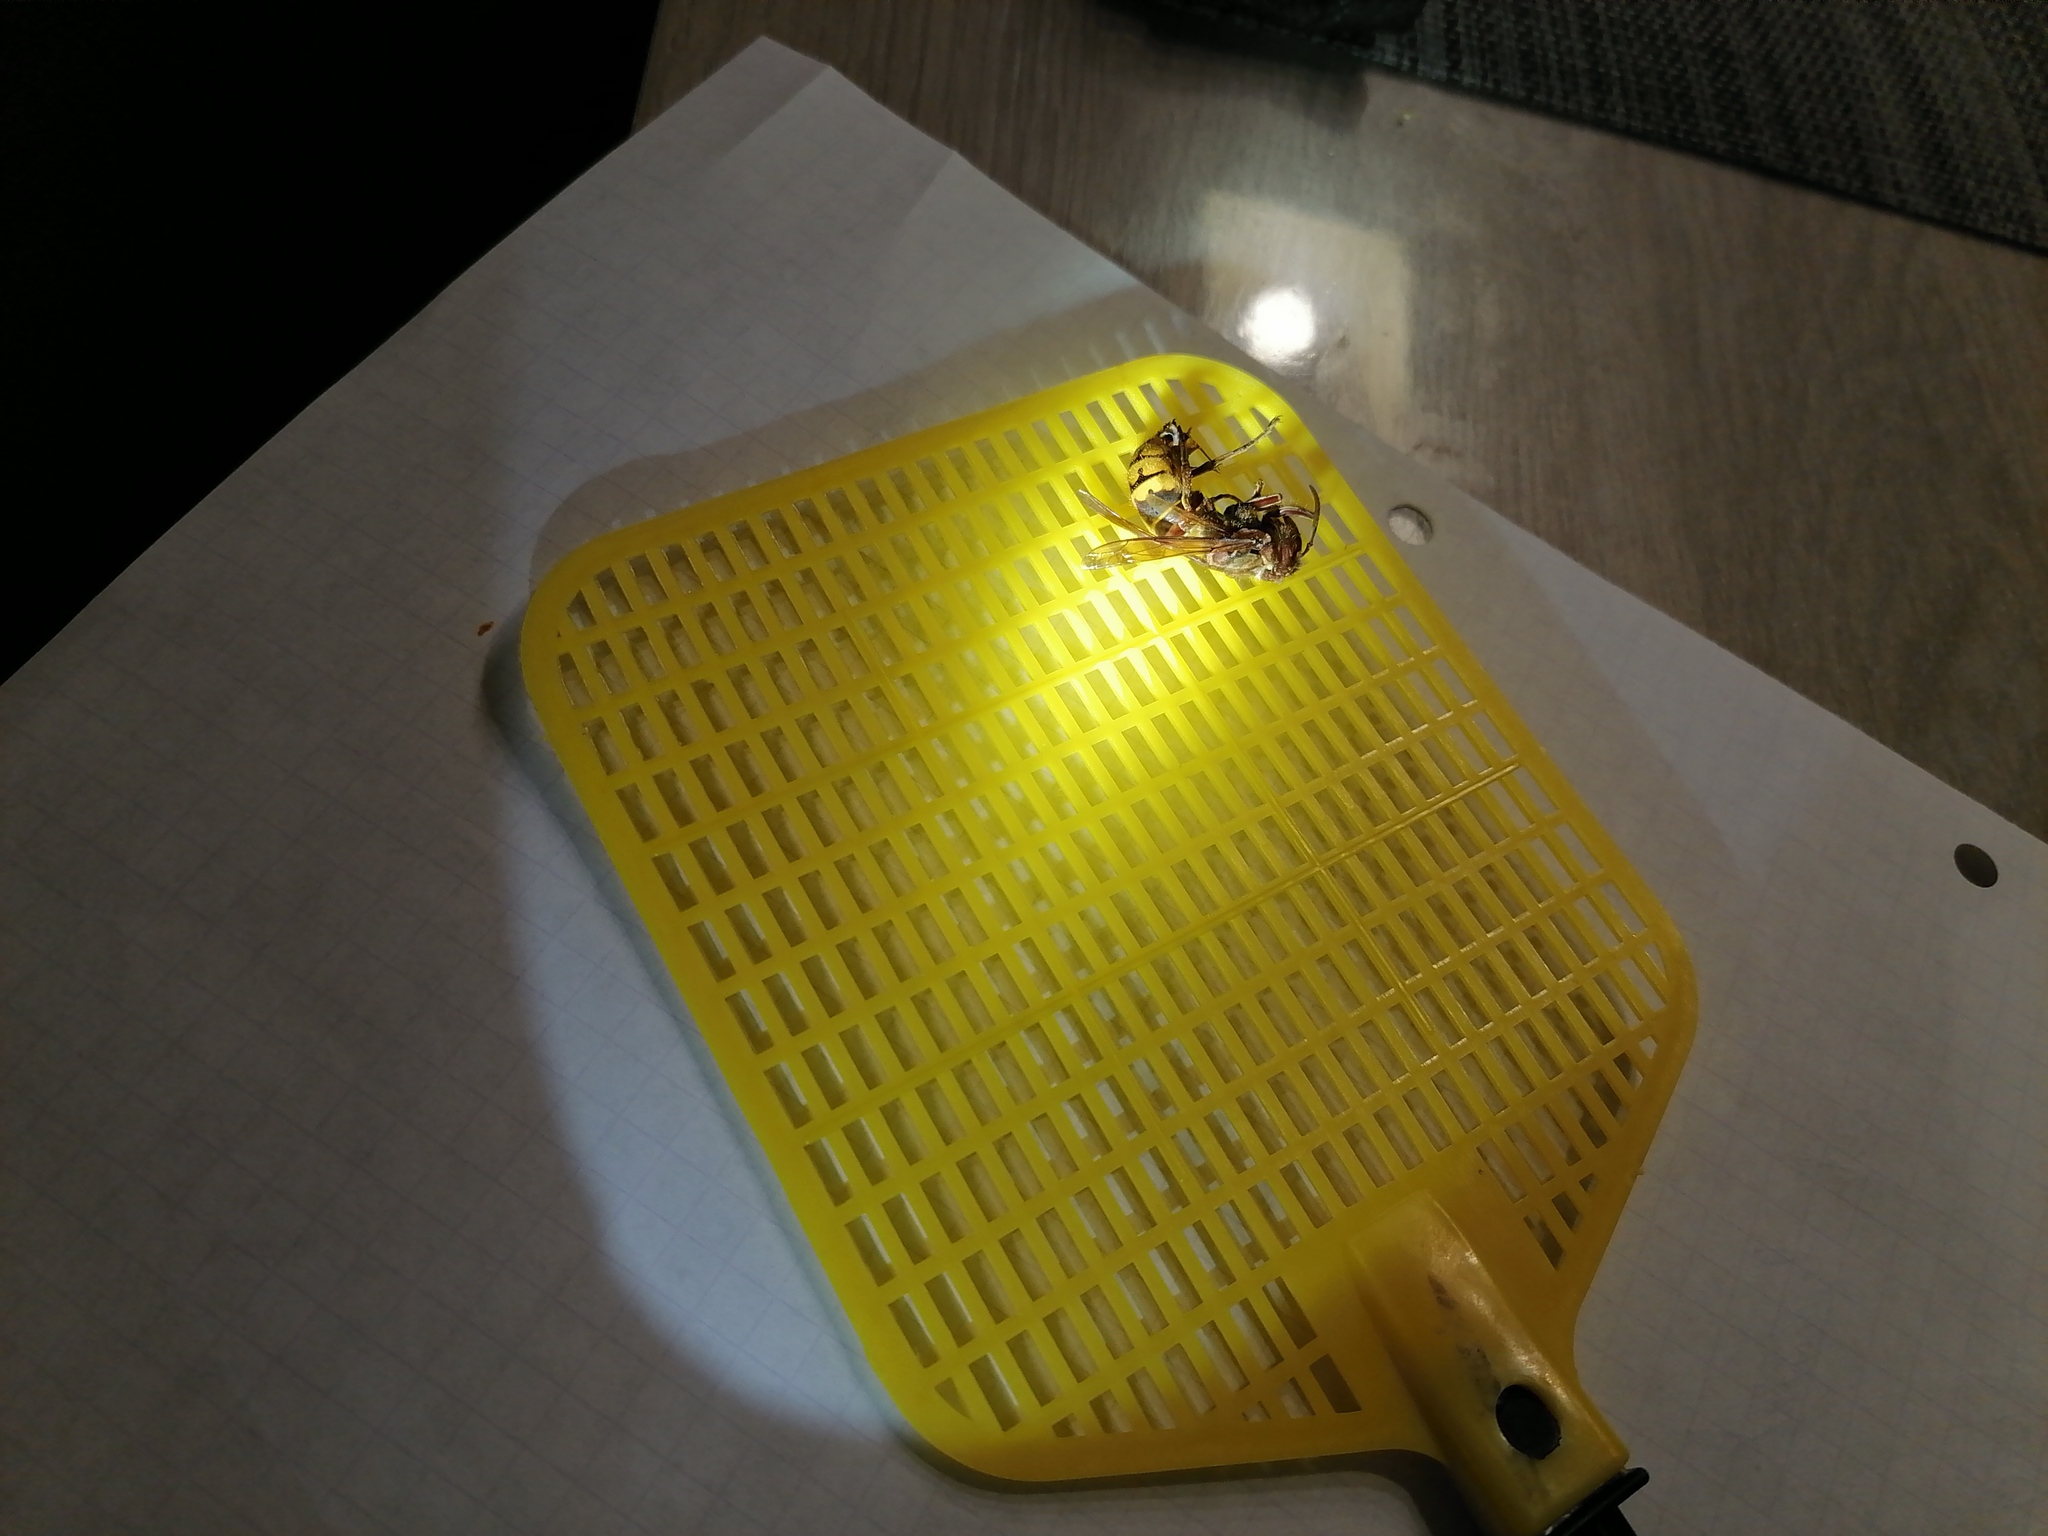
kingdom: Animalia
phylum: Arthropoda
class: Insecta
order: Hymenoptera
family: Vespidae
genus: Vespa
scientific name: Vespa crabro
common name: Hornet
